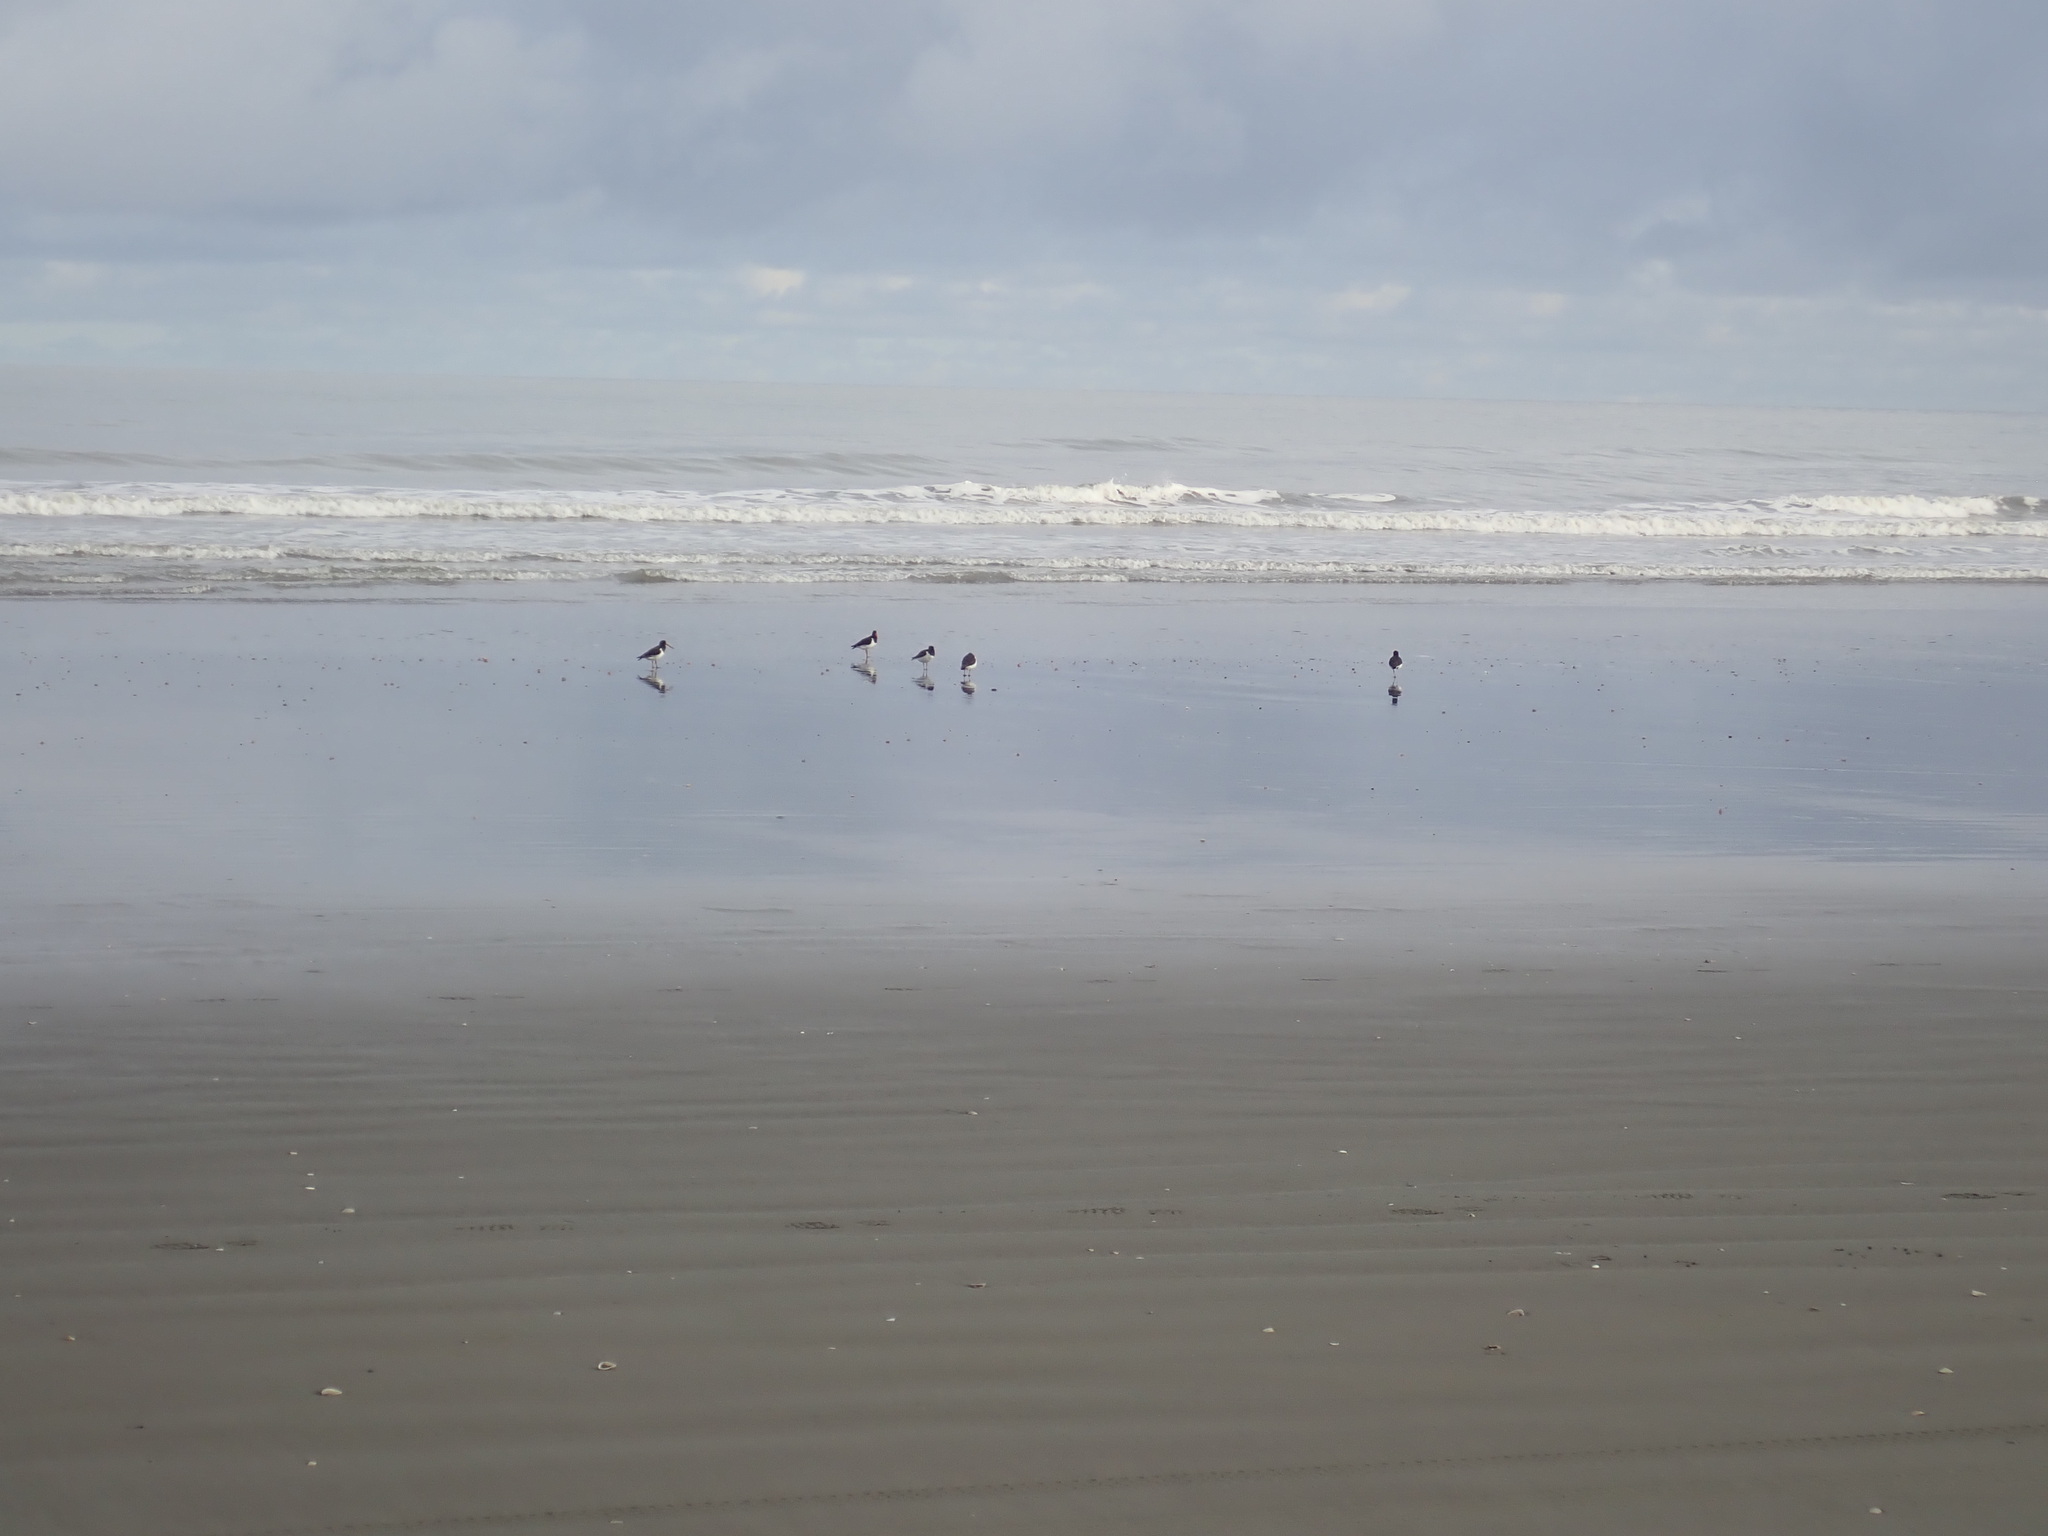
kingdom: Animalia
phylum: Chordata
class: Aves
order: Charadriiformes
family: Haematopodidae
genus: Haematopus
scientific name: Haematopus finschi
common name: South island oystercatcher
